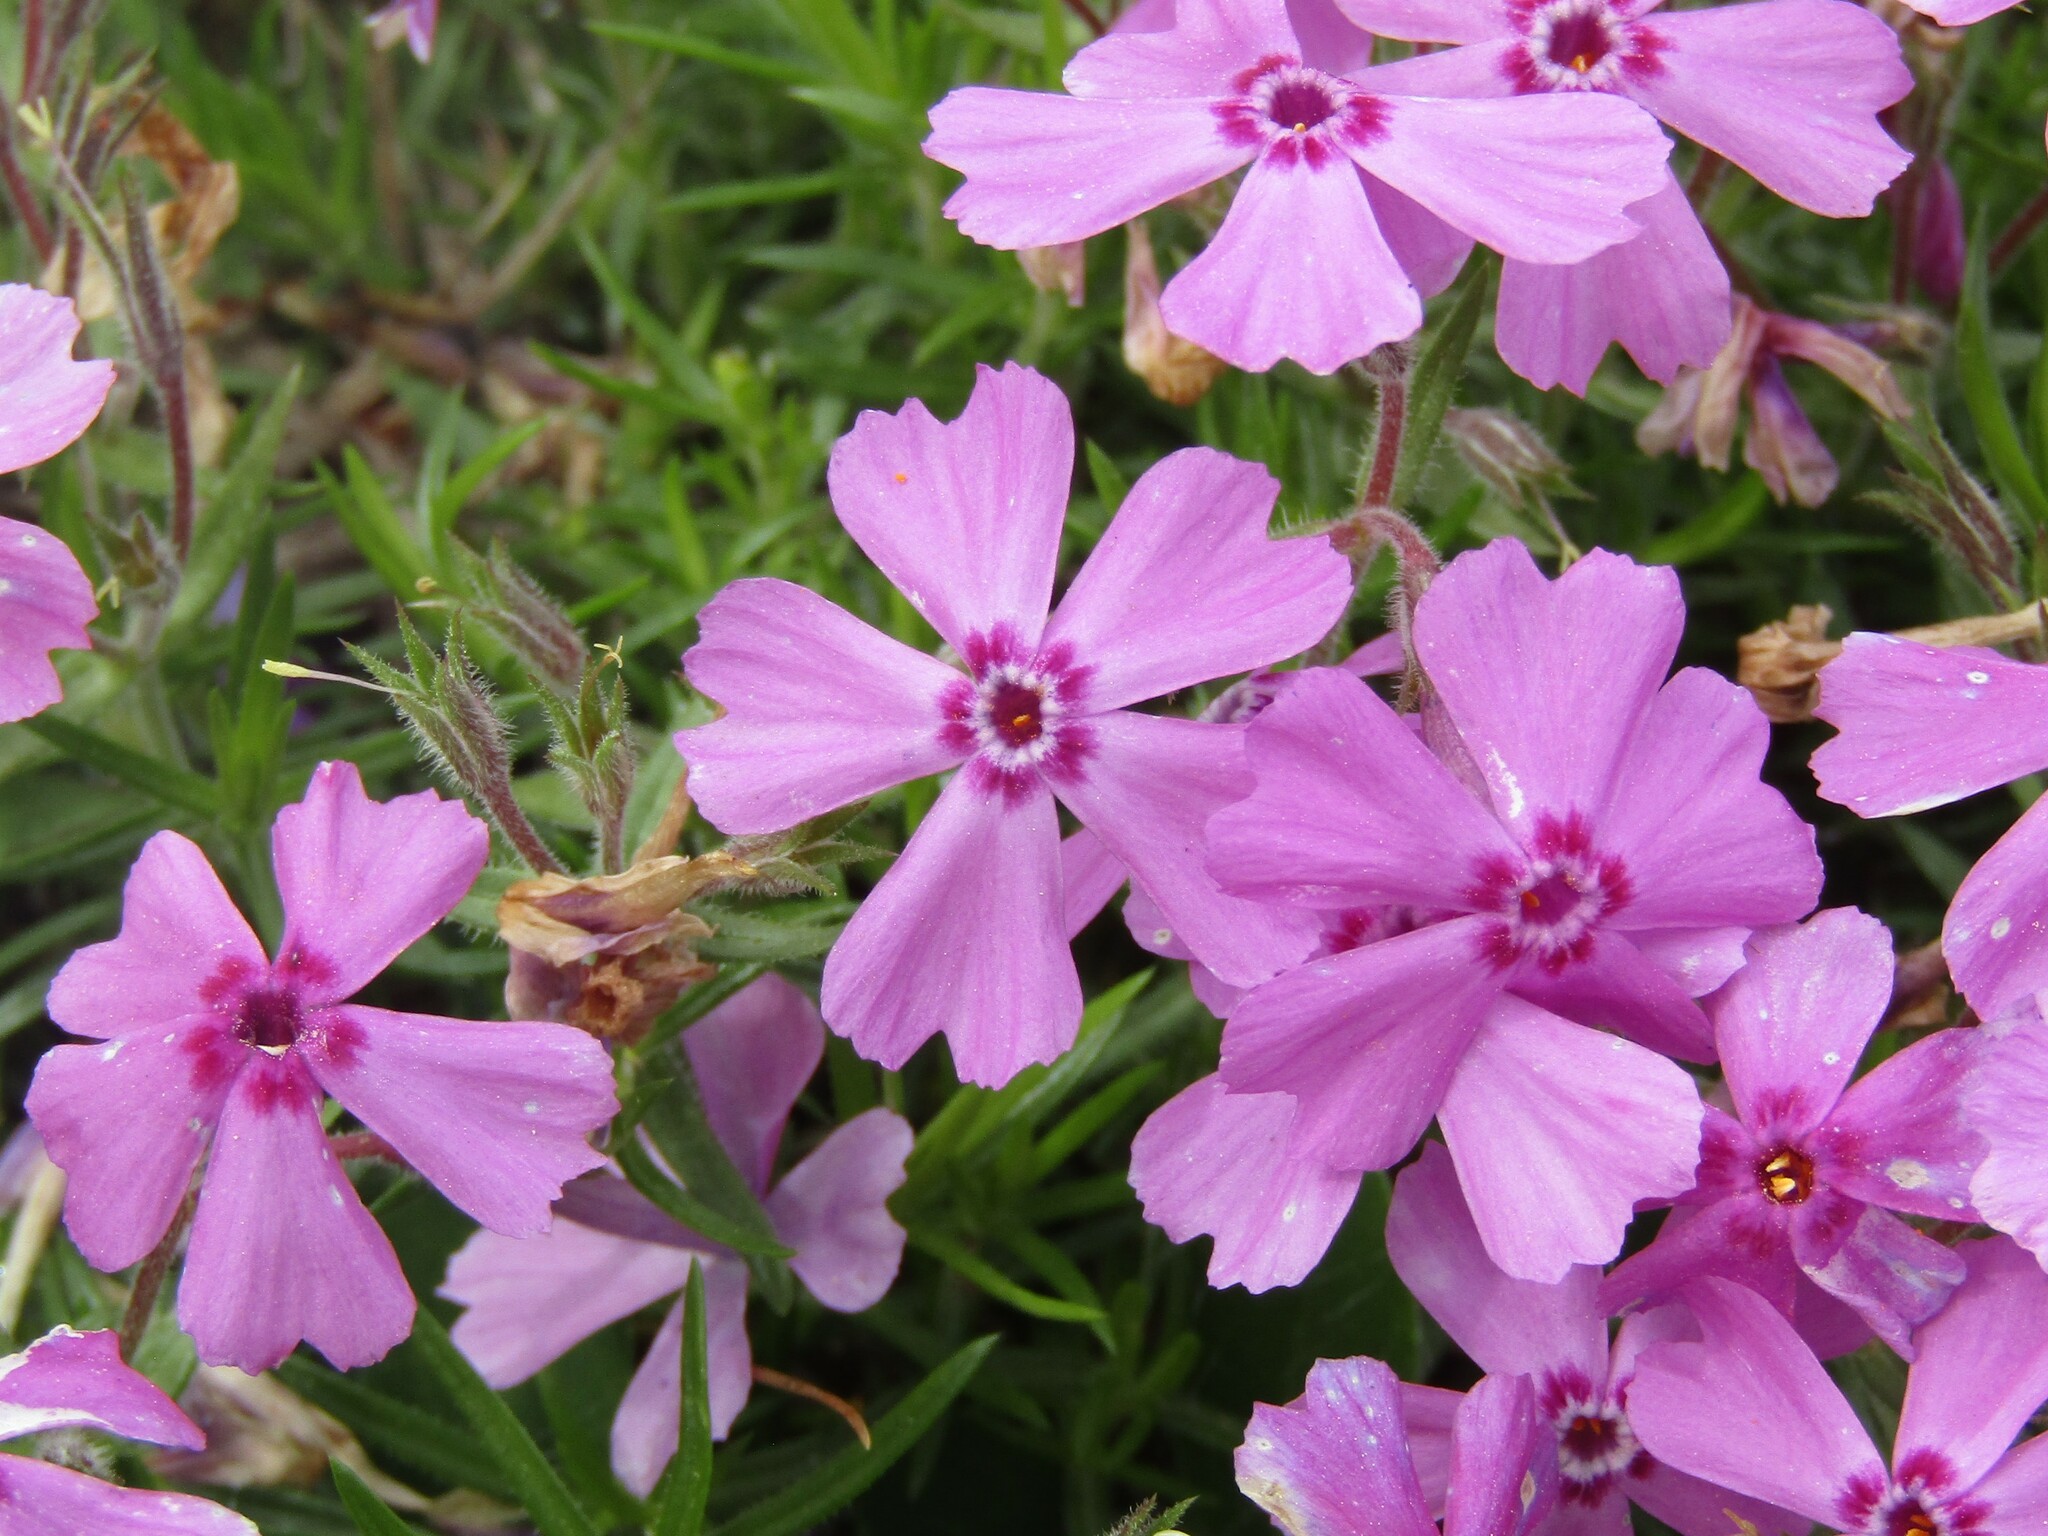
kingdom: Plantae
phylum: Tracheophyta
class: Magnoliopsida
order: Ericales
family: Polemoniaceae
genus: Phlox
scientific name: Phlox subulata
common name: Moss phlox
